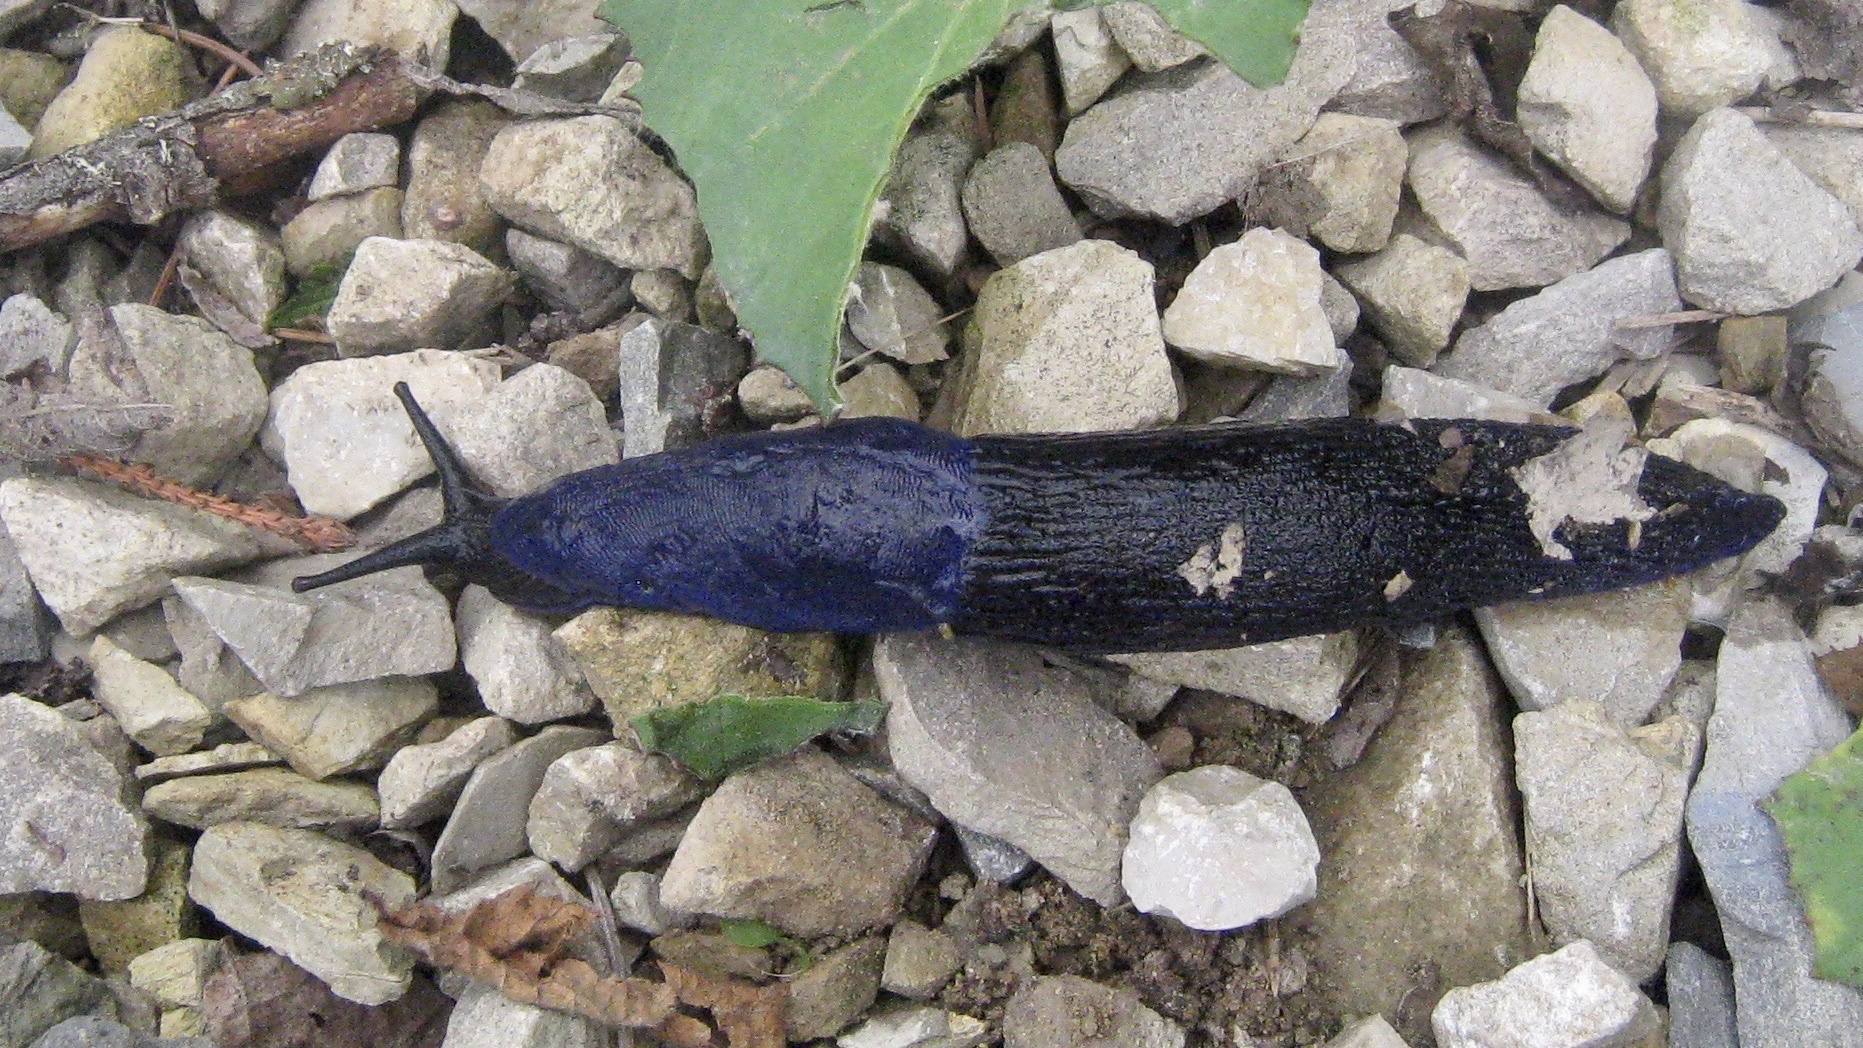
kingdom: Animalia
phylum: Mollusca
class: Gastropoda
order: Stylommatophora
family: Limacidae
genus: Bielzia
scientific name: Bielzia coerulans
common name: Carpathian blue slug
